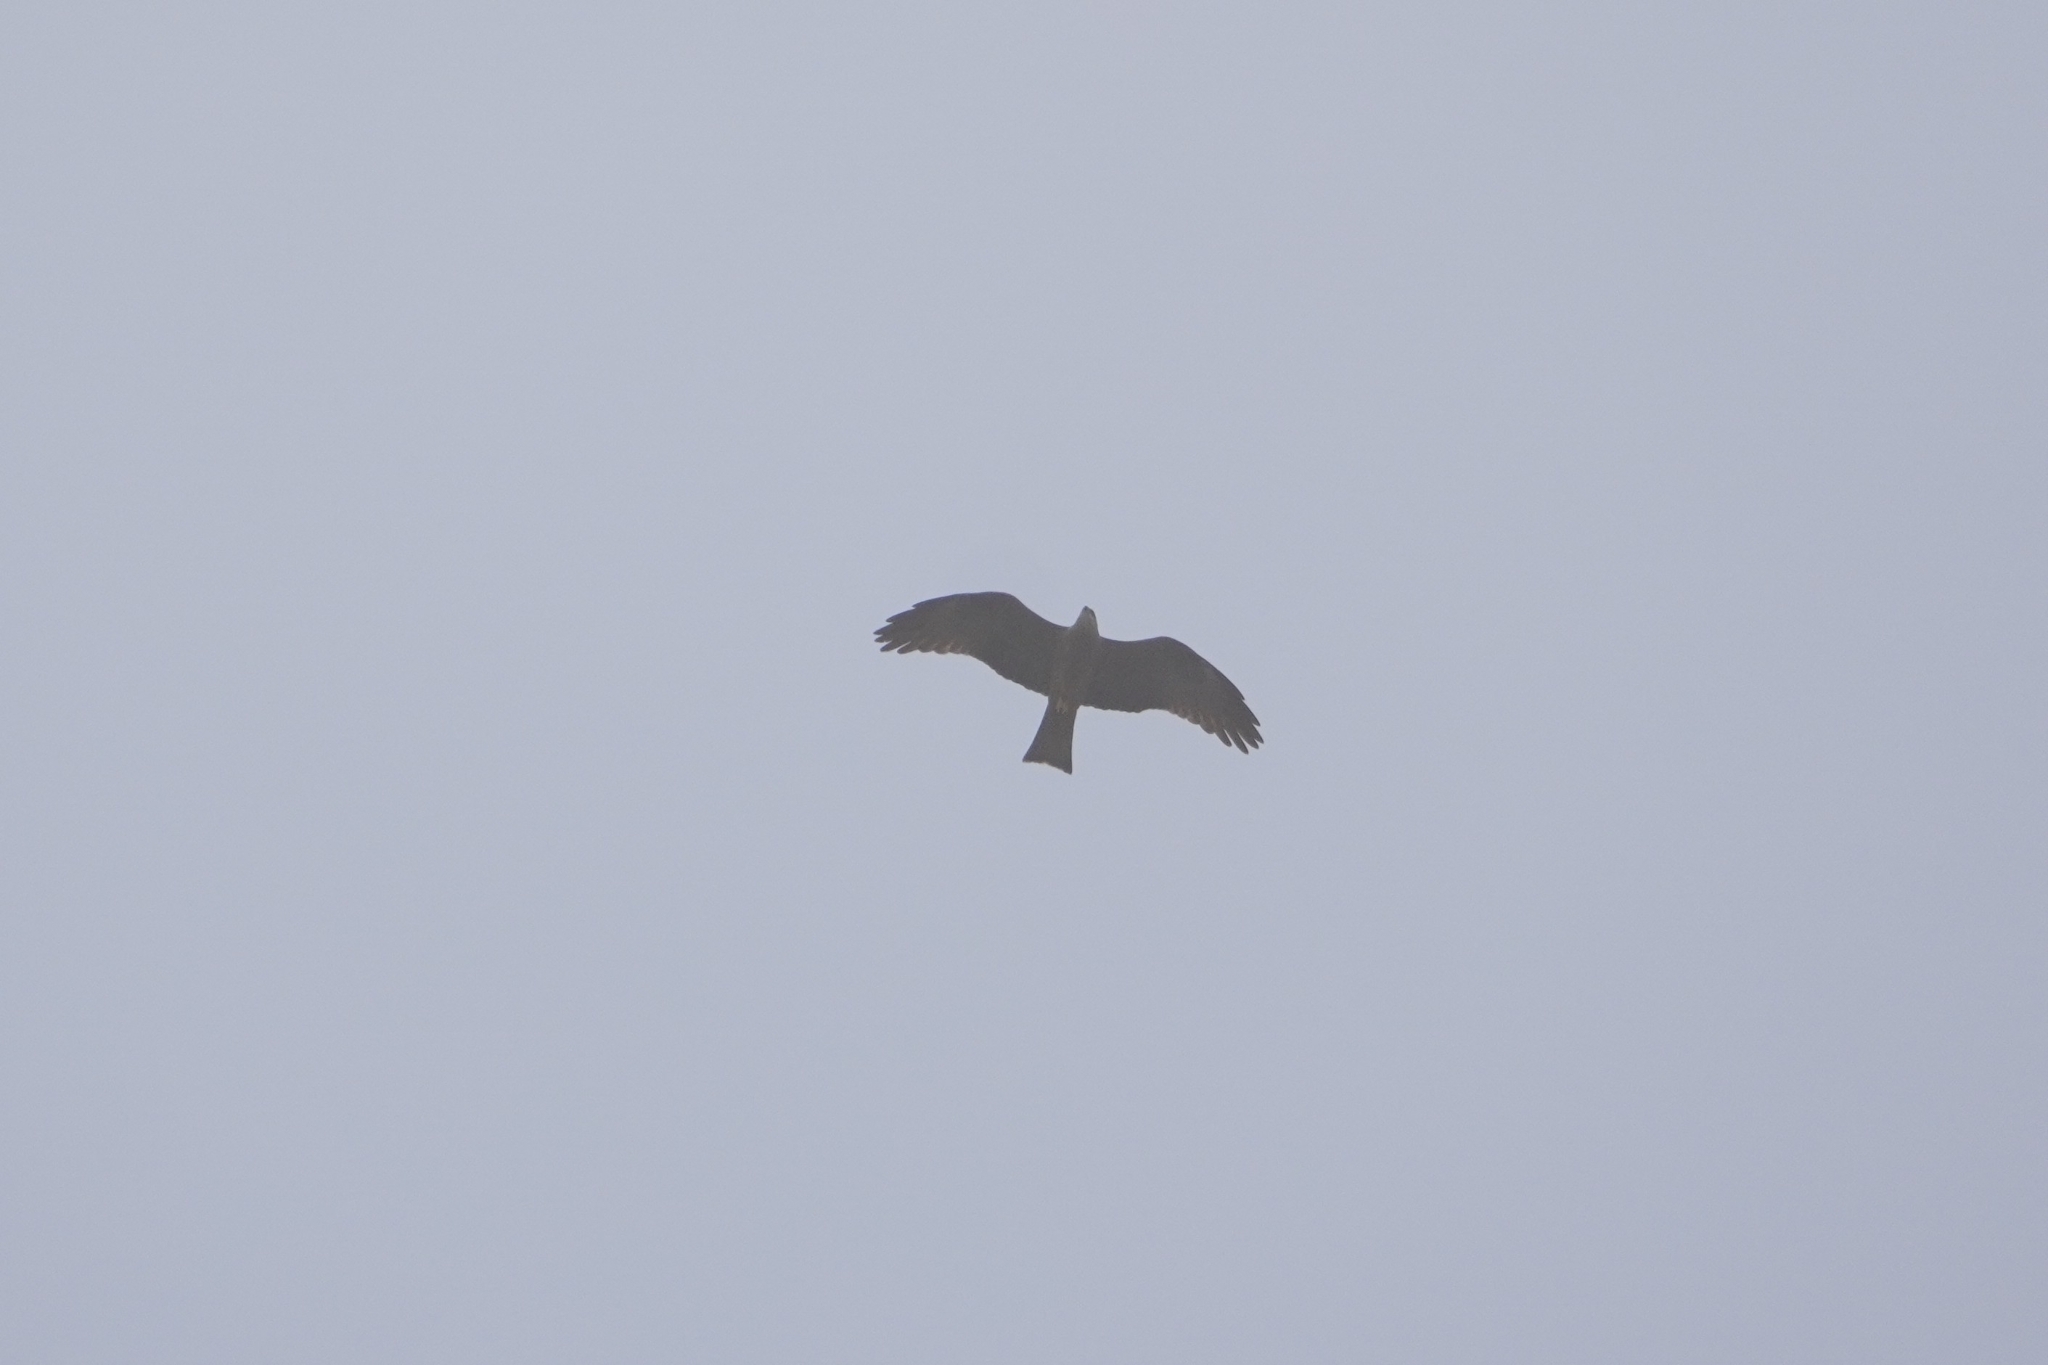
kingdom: Animalia
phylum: Chordata
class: Aves
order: Accipitriformes
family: Accipitridae
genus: Milvus
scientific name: Milvus migrans
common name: Black kite
